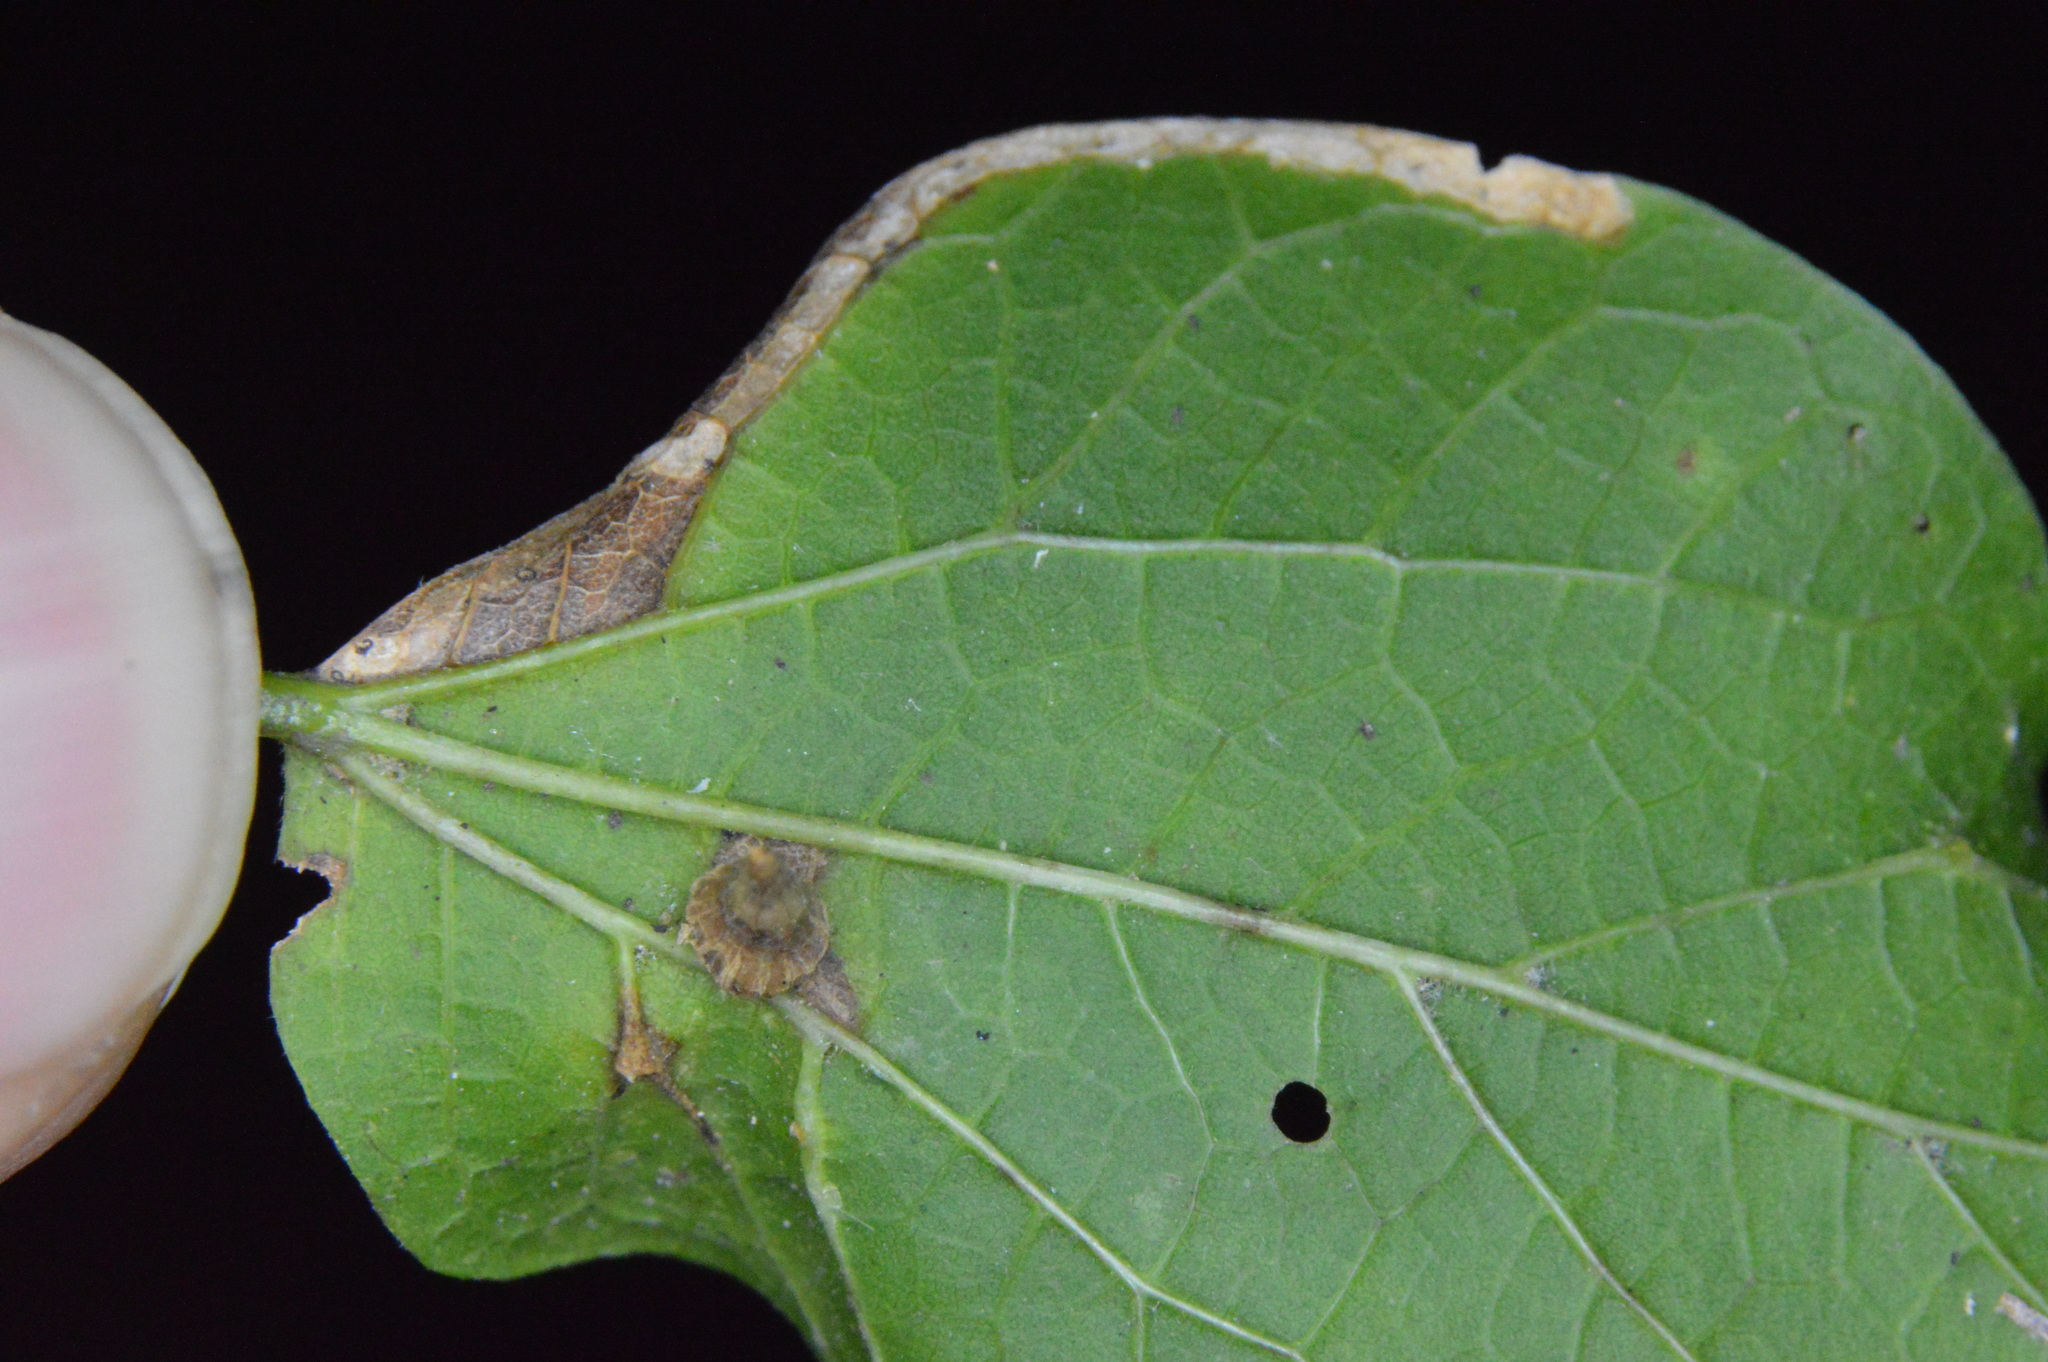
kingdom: Animalia
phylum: Arthropoda
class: Insecta
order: Diptera
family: Cecidomyiidae
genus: Celticecis
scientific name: Celticecis subulata
